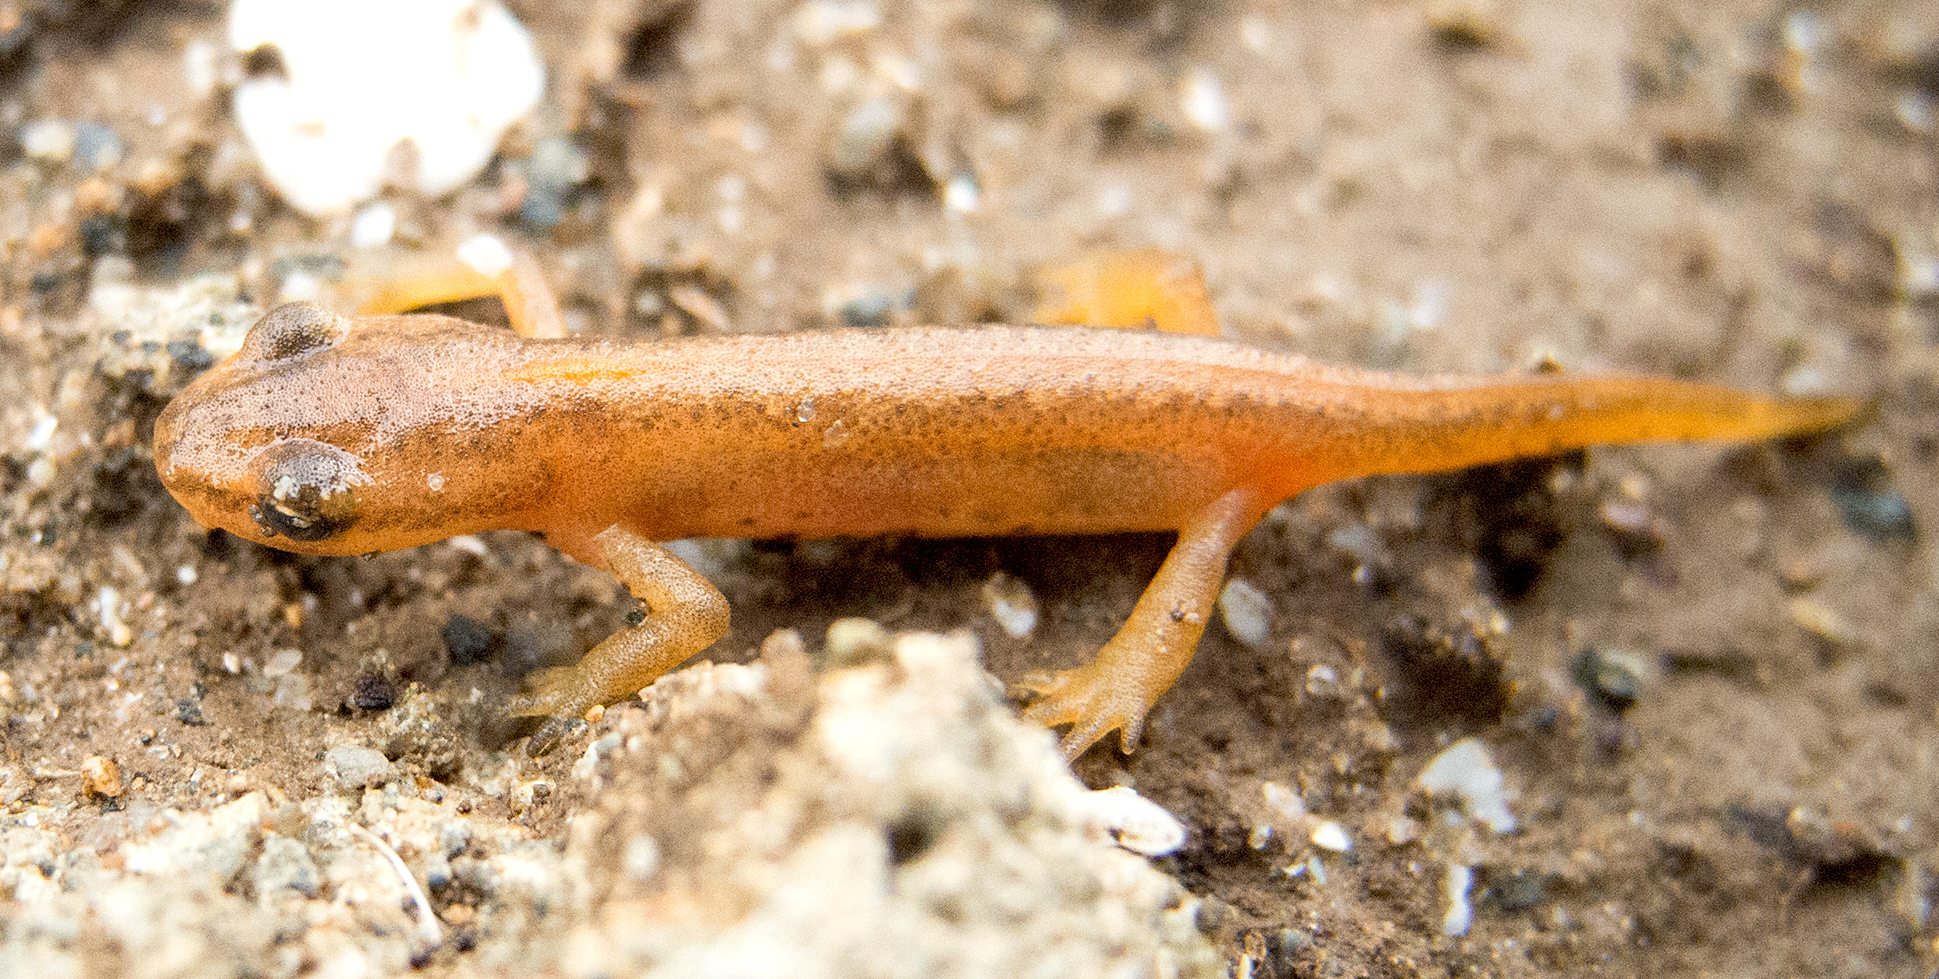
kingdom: Animalia
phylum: Chordata
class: Amphibia
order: Caudata
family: Salamandridae
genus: Lissotriton
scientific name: Lissotriton schmidtleri
